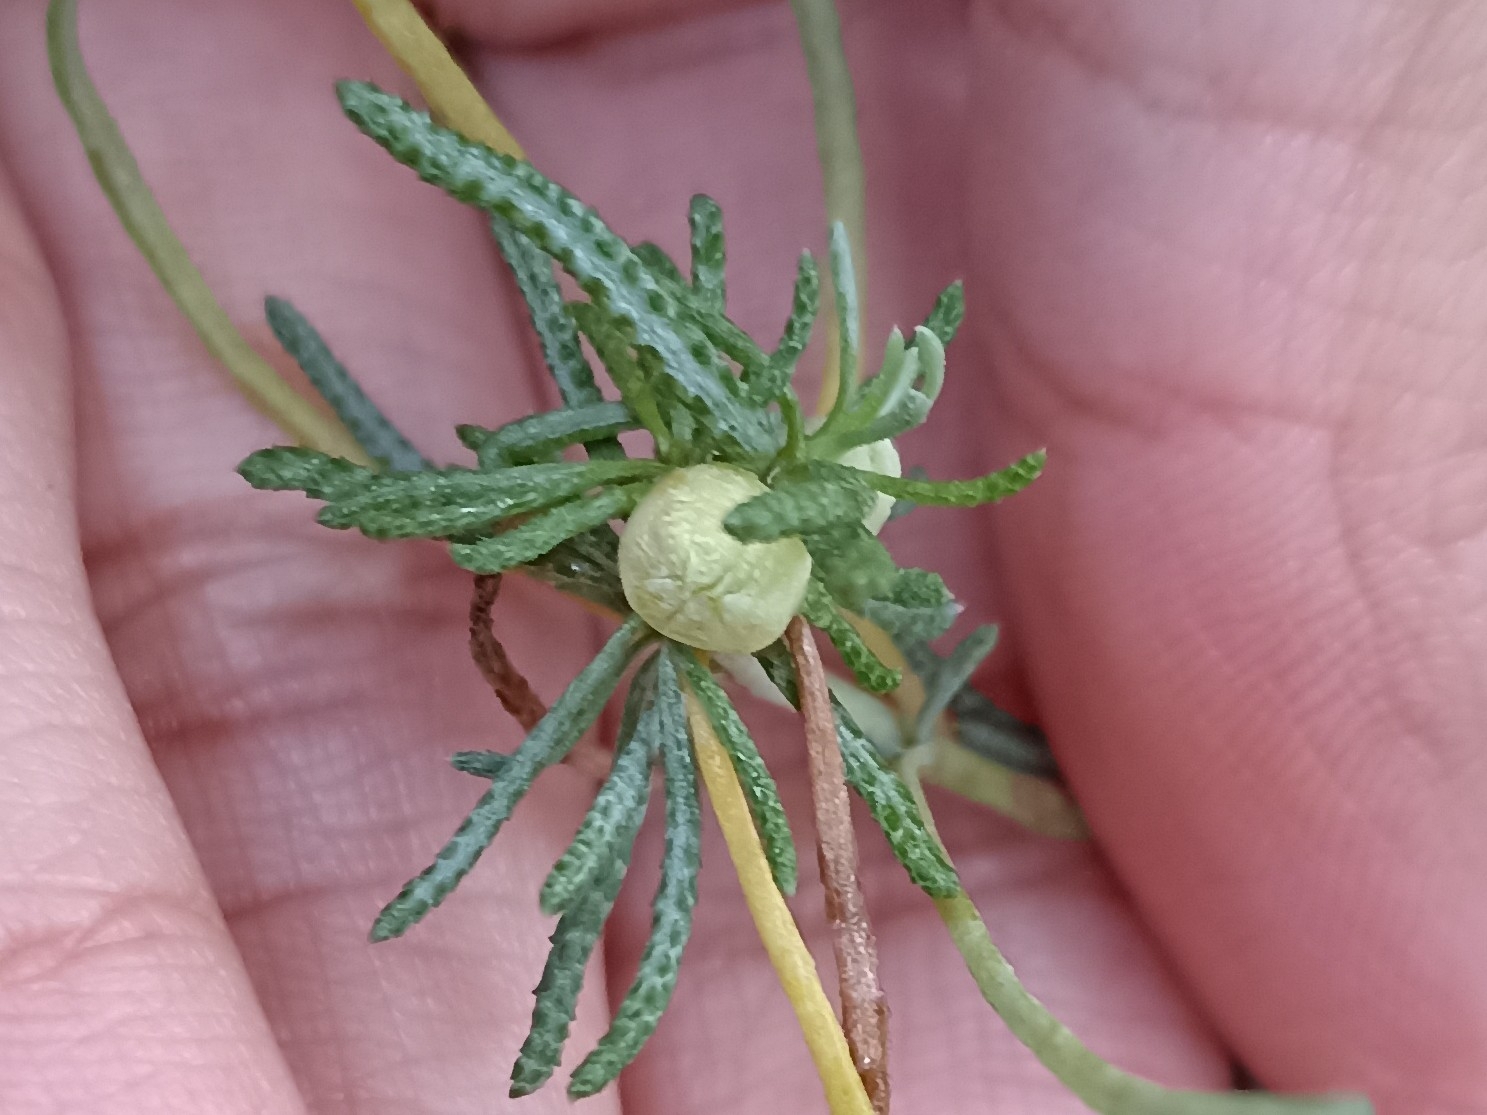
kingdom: Animalia
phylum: Arthropoda
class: Insecta
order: Diptera
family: Cecidomyiidae
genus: Rhopalomyia
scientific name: Rhopalomyia santolinae
